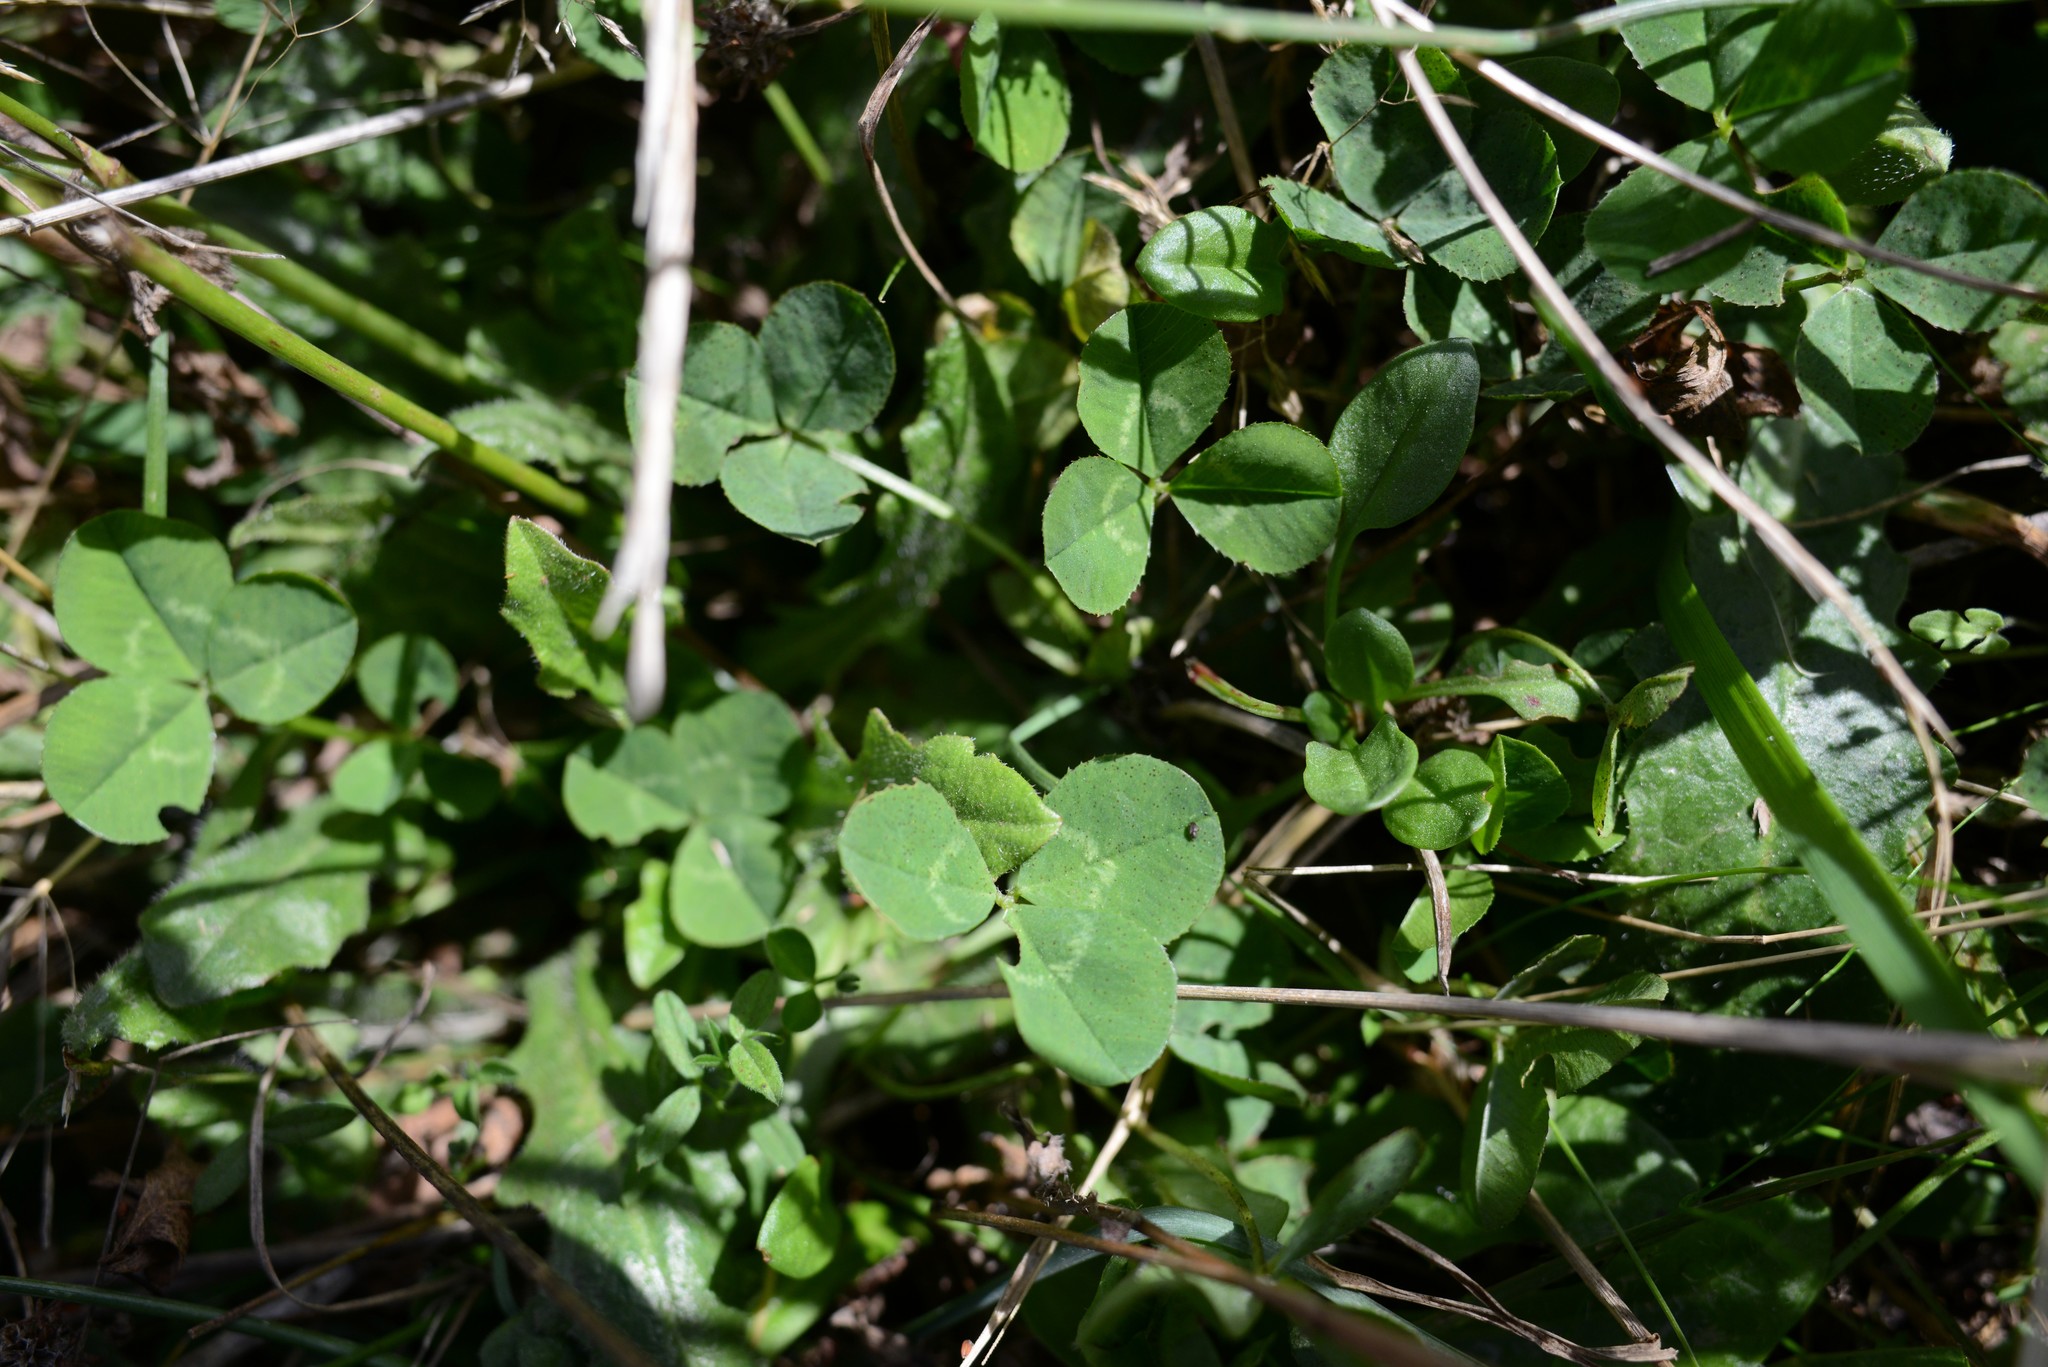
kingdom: Plantae
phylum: Tracheophyta
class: Magnoliopsida
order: Fabales
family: Fabaceae
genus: Trifolium
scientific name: Trifolium repens
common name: White clover
